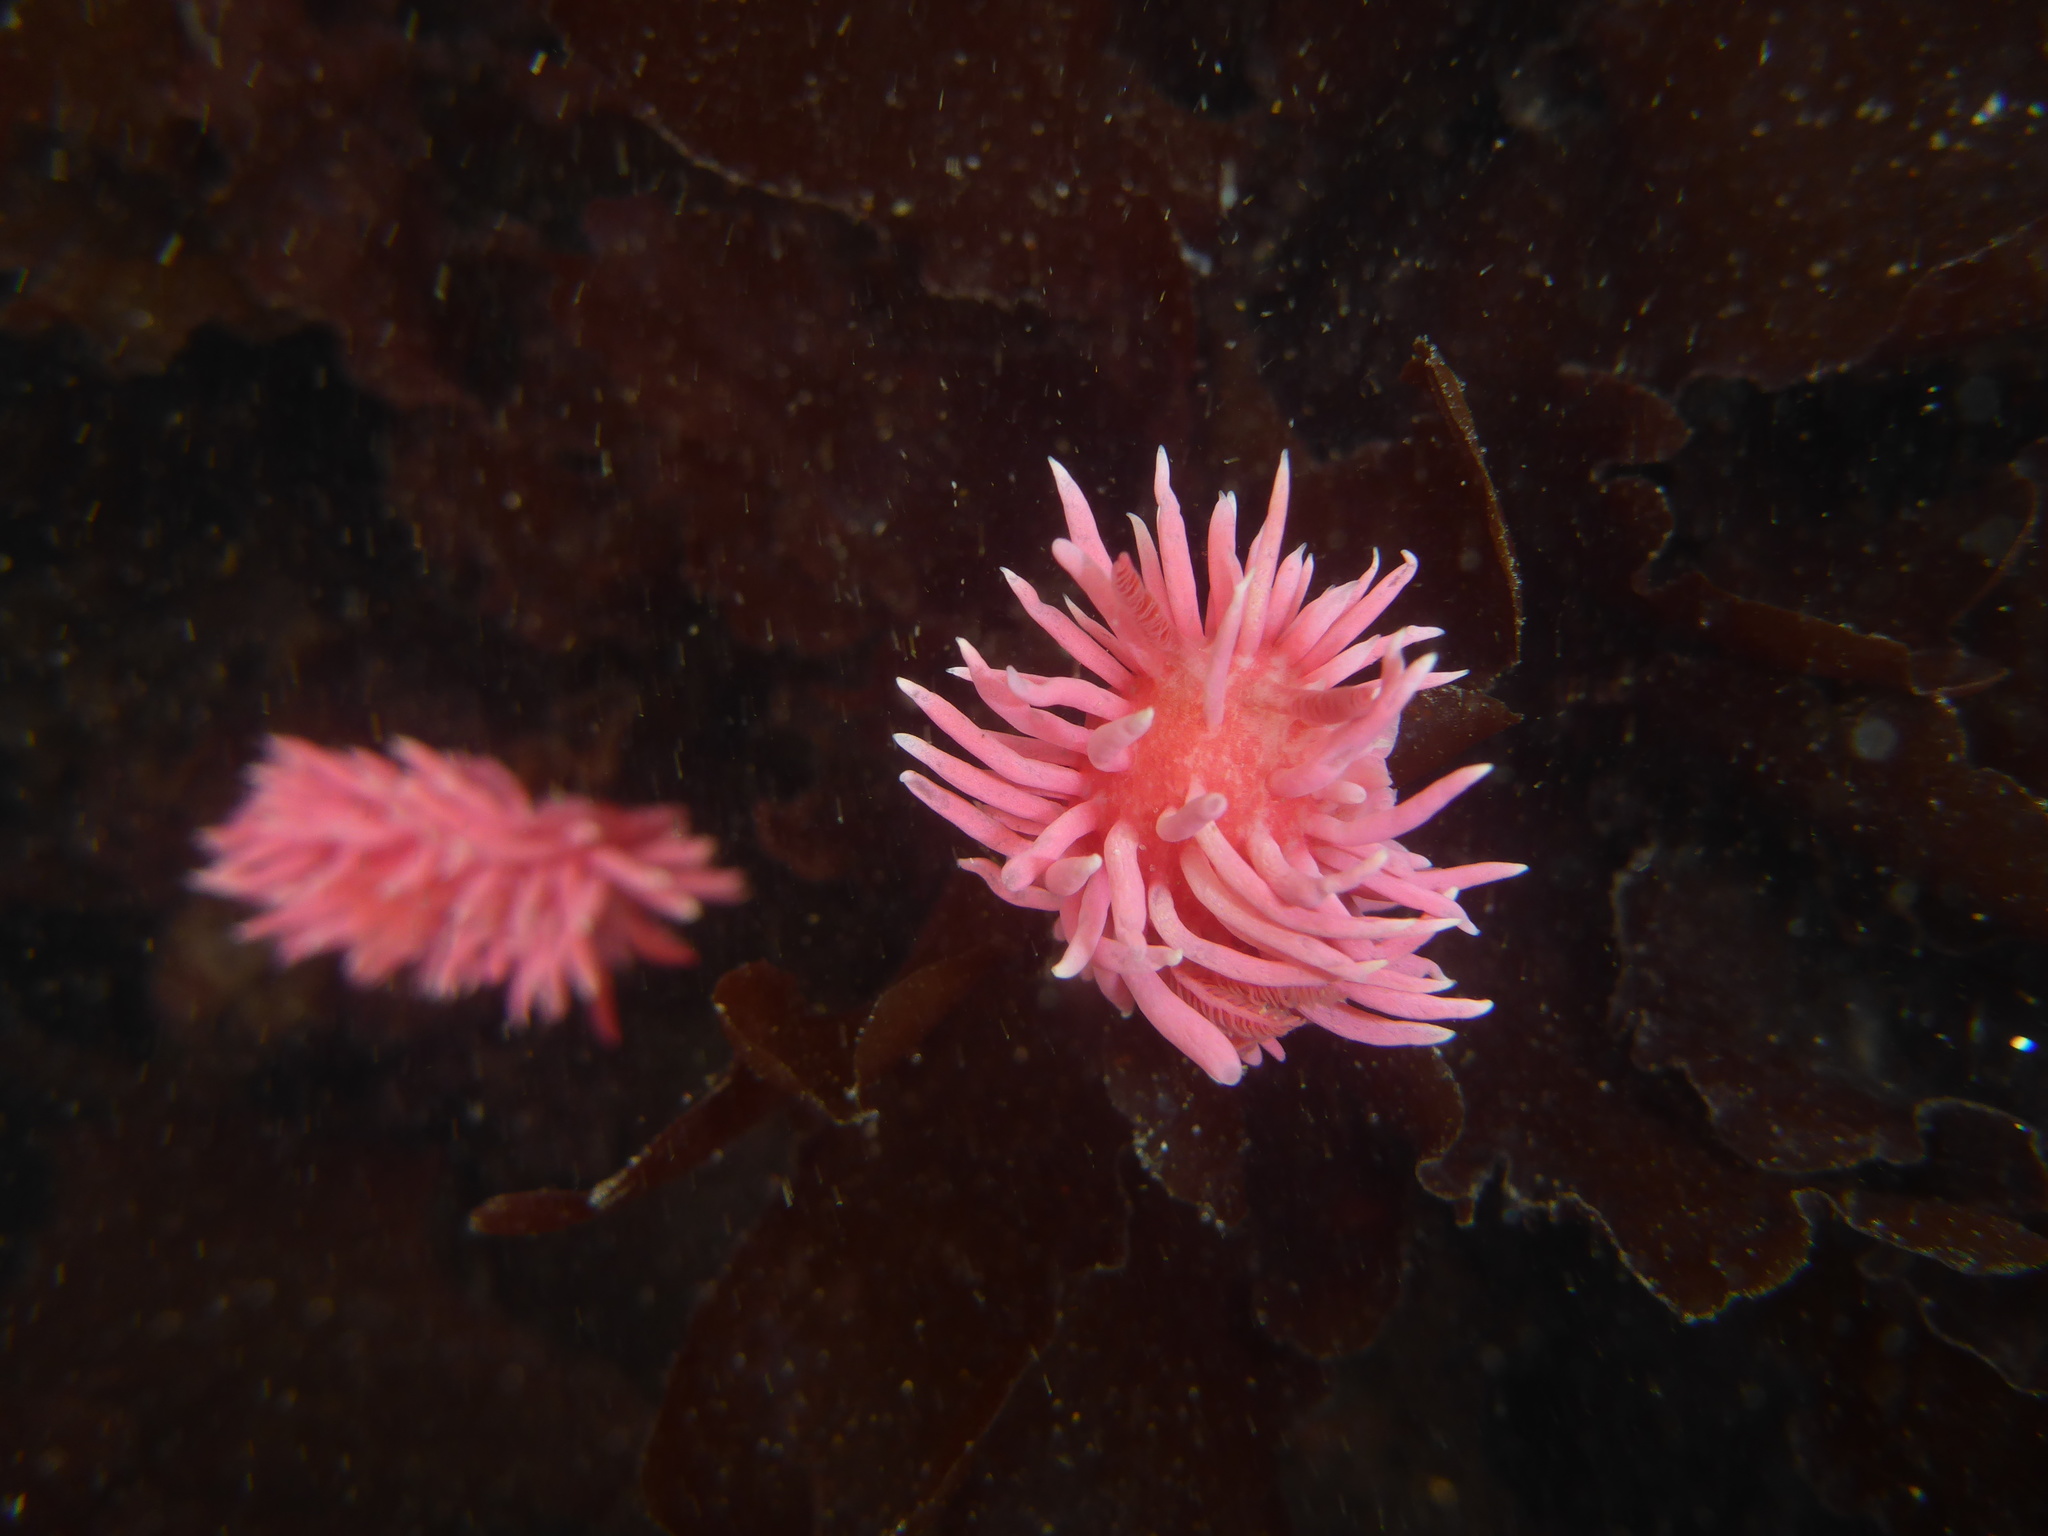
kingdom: Animalia
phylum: Mollusca
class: Gastropoda
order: Nudibranchia
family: Goniodorididae
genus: Okenia
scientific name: Okenia
